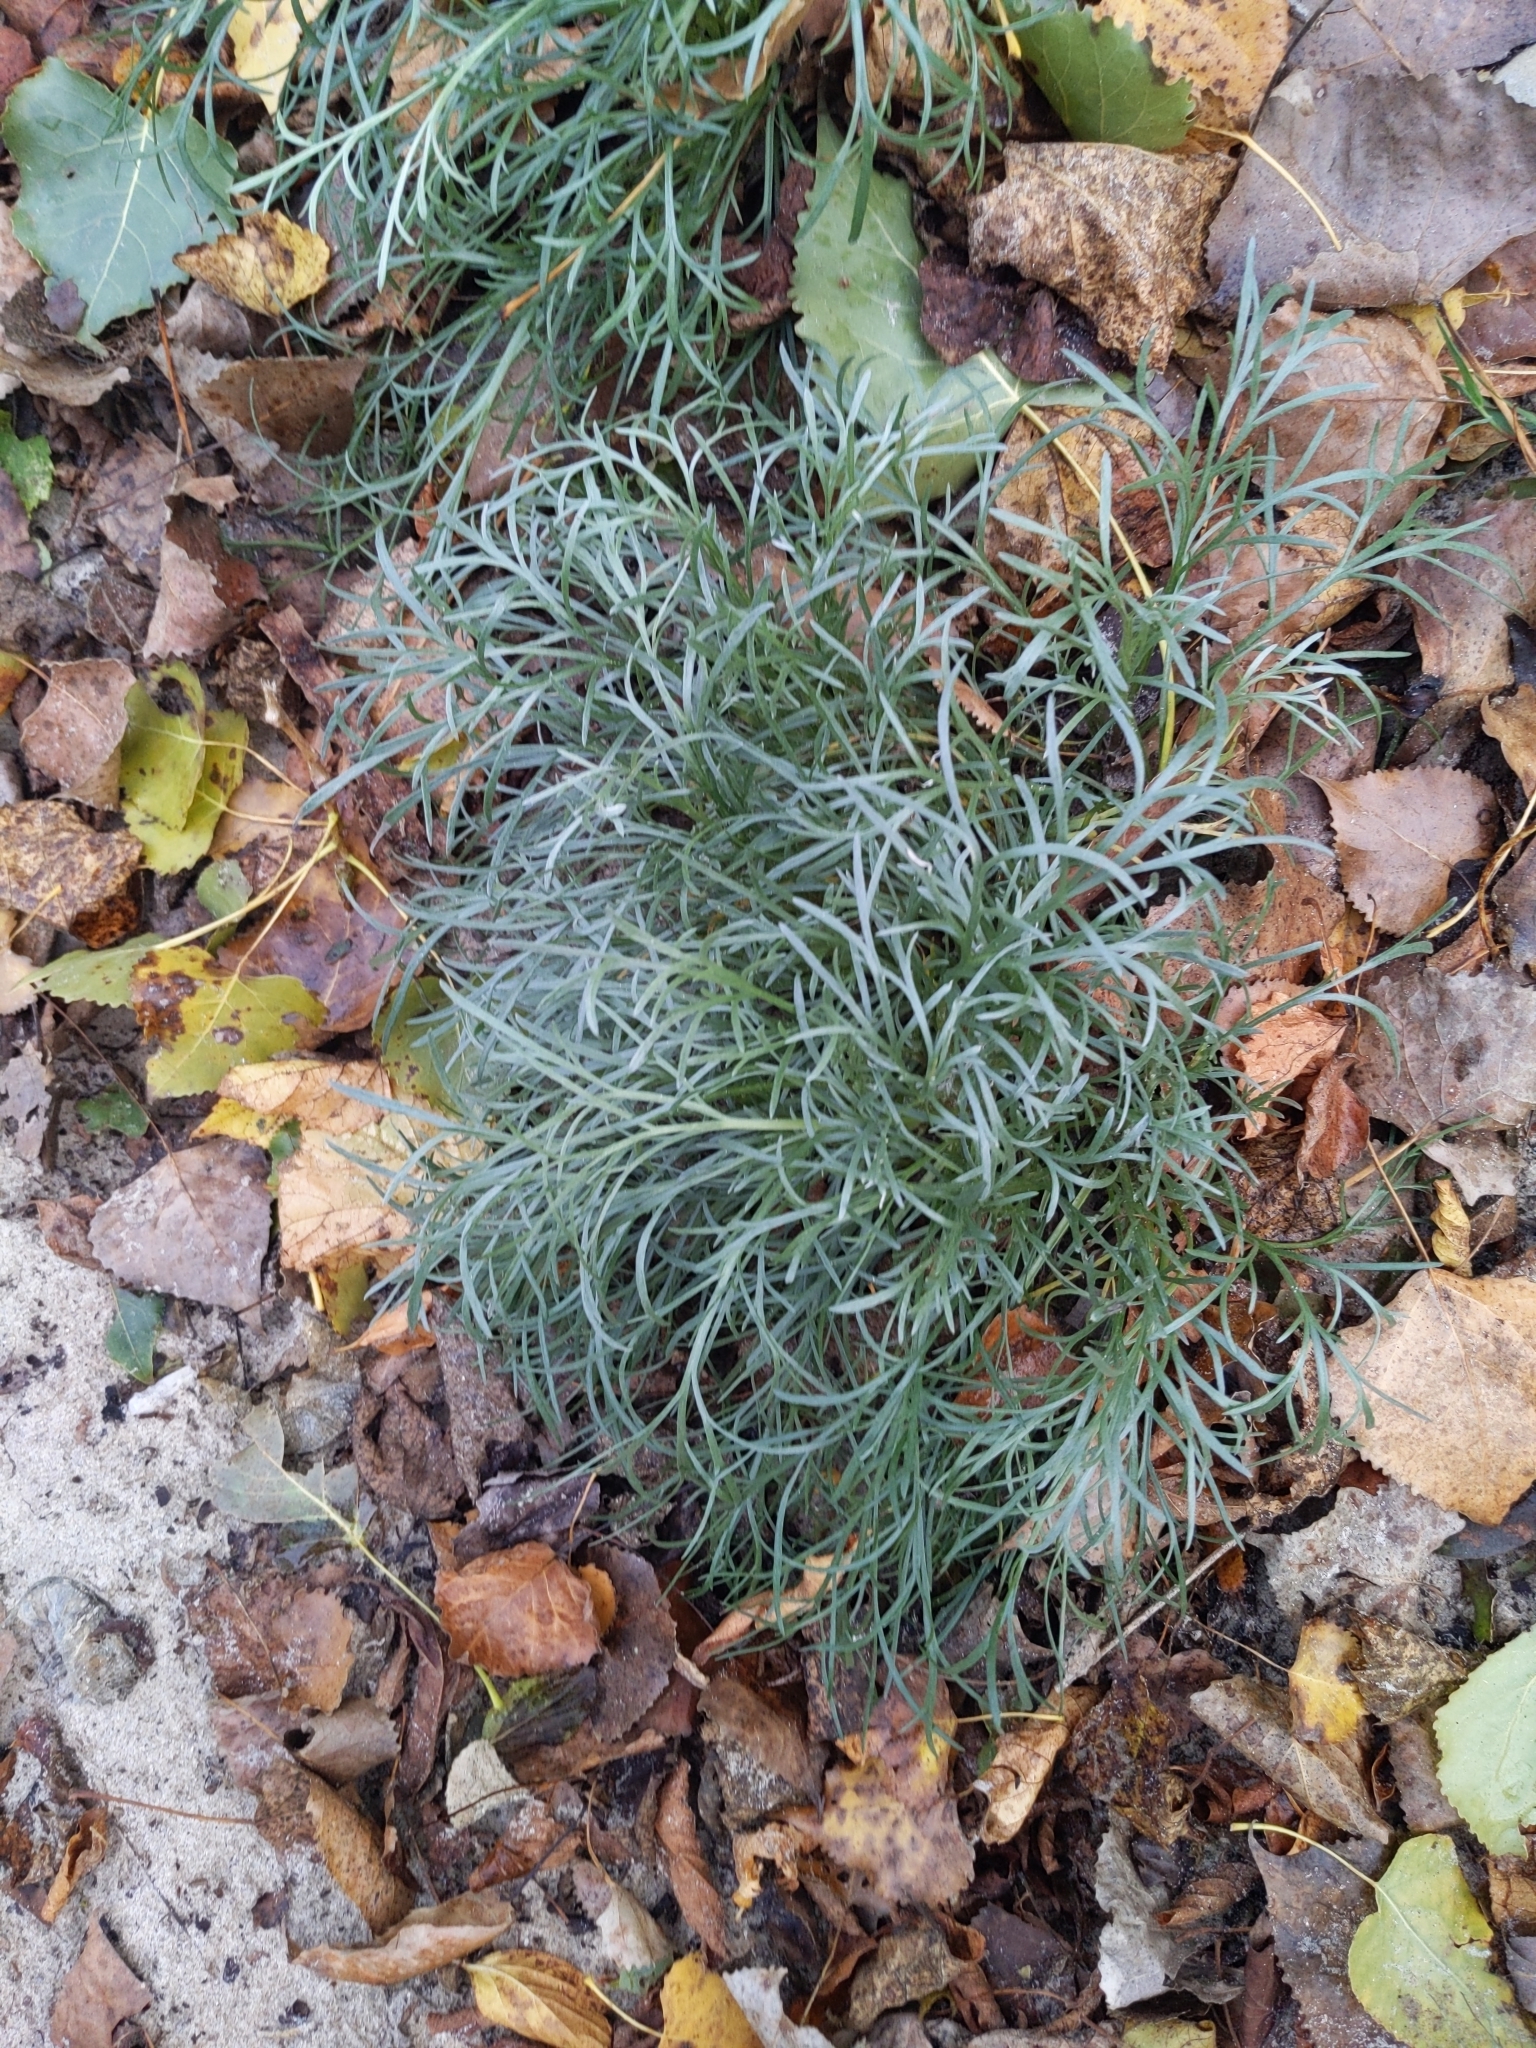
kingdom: Plantae
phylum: Tracheophyta
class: Magnoliopsida
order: Asterales
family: Asteraceae
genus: Artemisia
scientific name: Artemisia campestris
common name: Field wormwood
